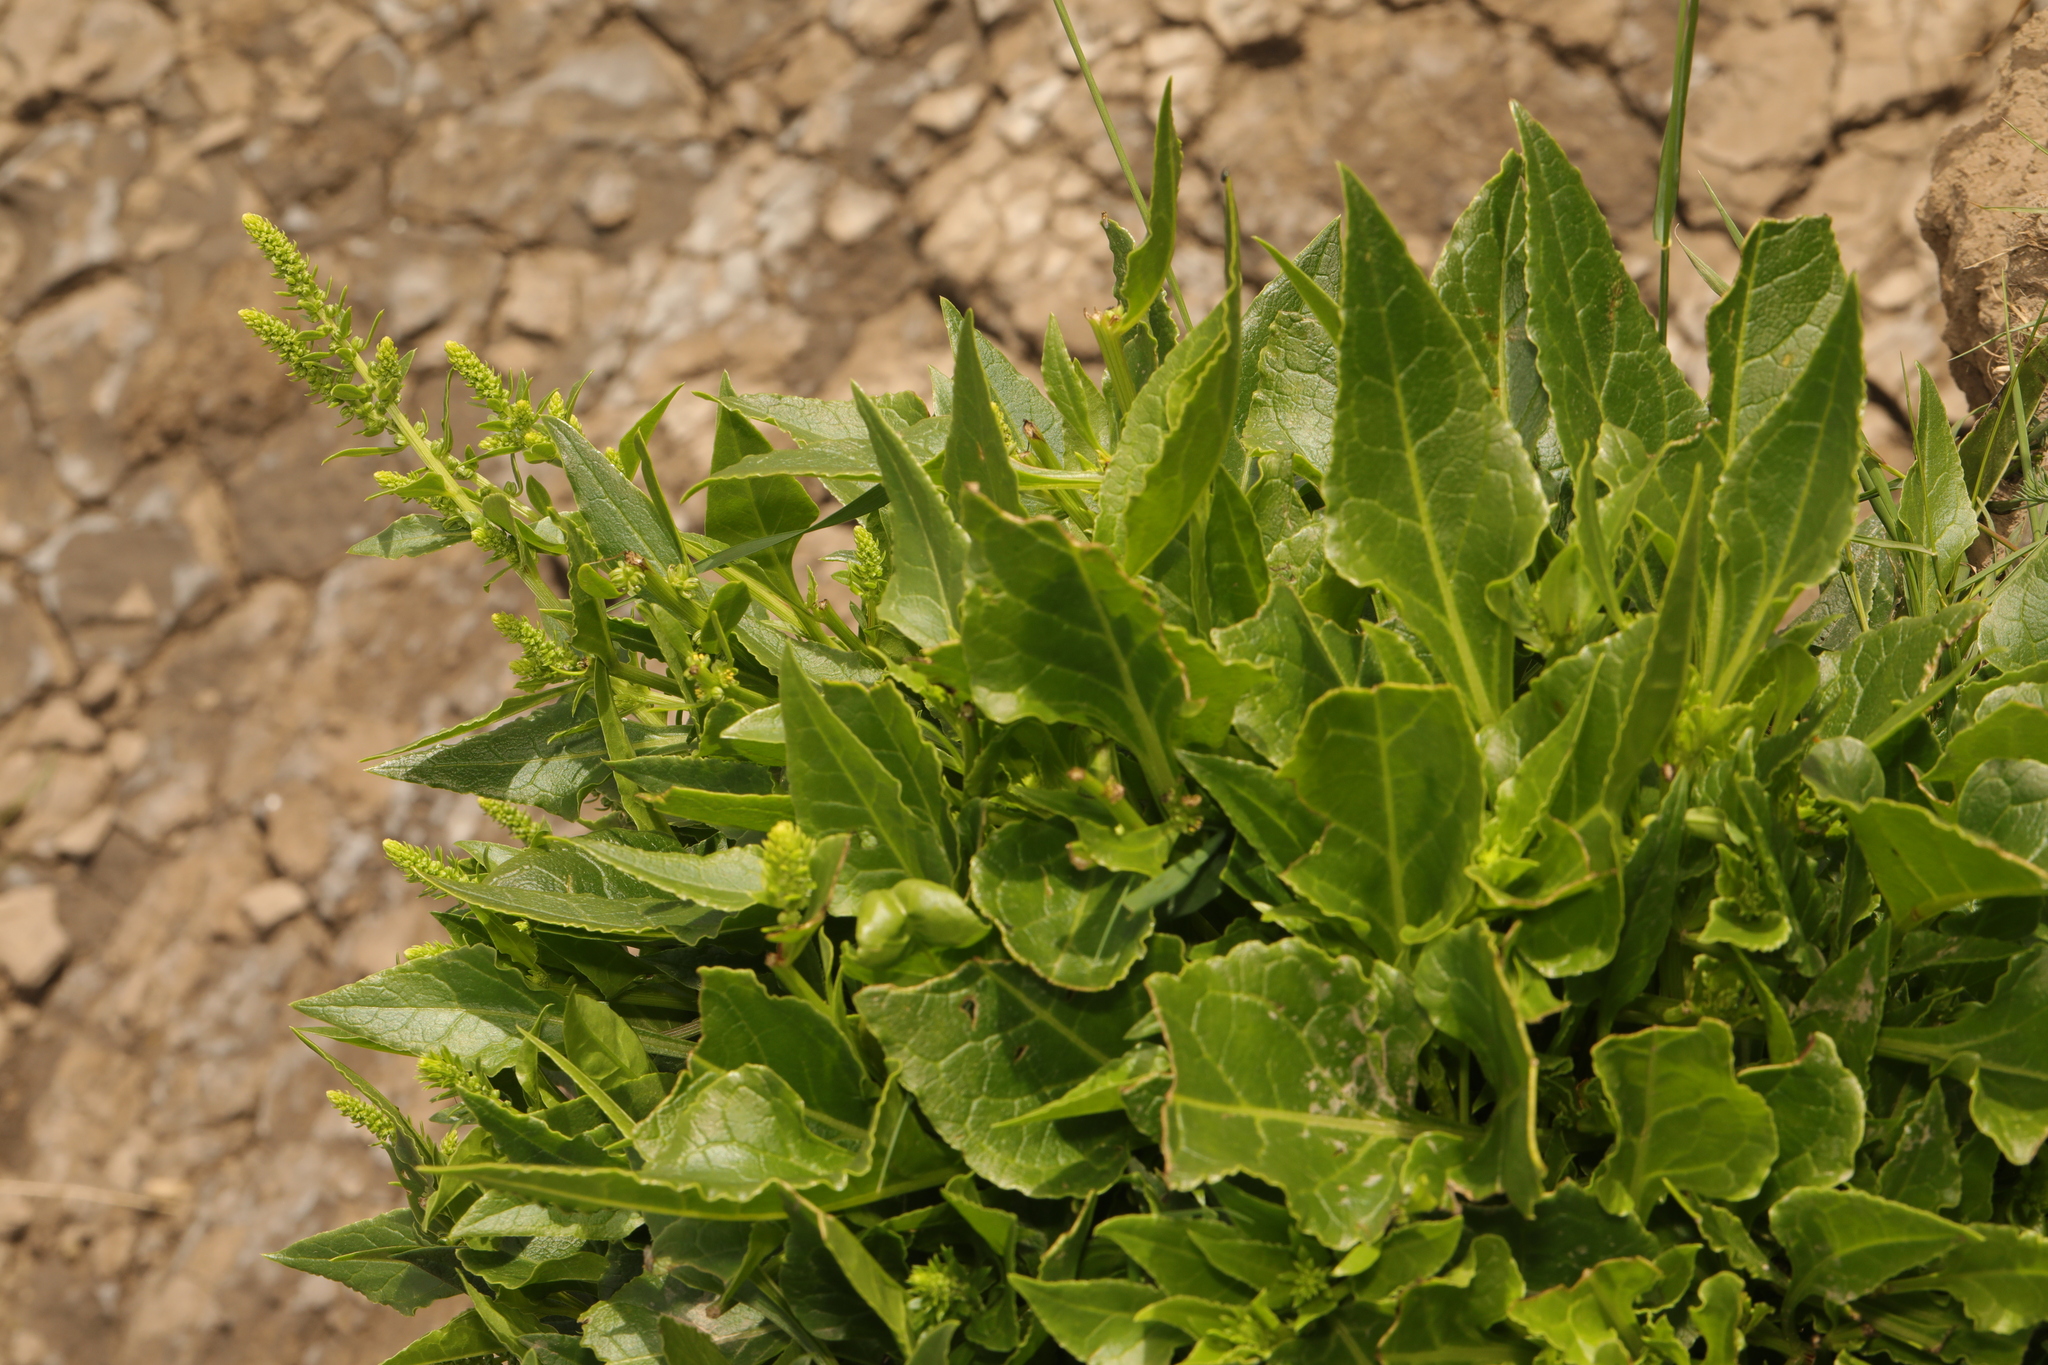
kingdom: Plantae
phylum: Tracheophyta
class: Magnoliopsida
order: Caryophyllales
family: Amaranthaceae
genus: Beta
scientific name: Beta vulgaris
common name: Beet
